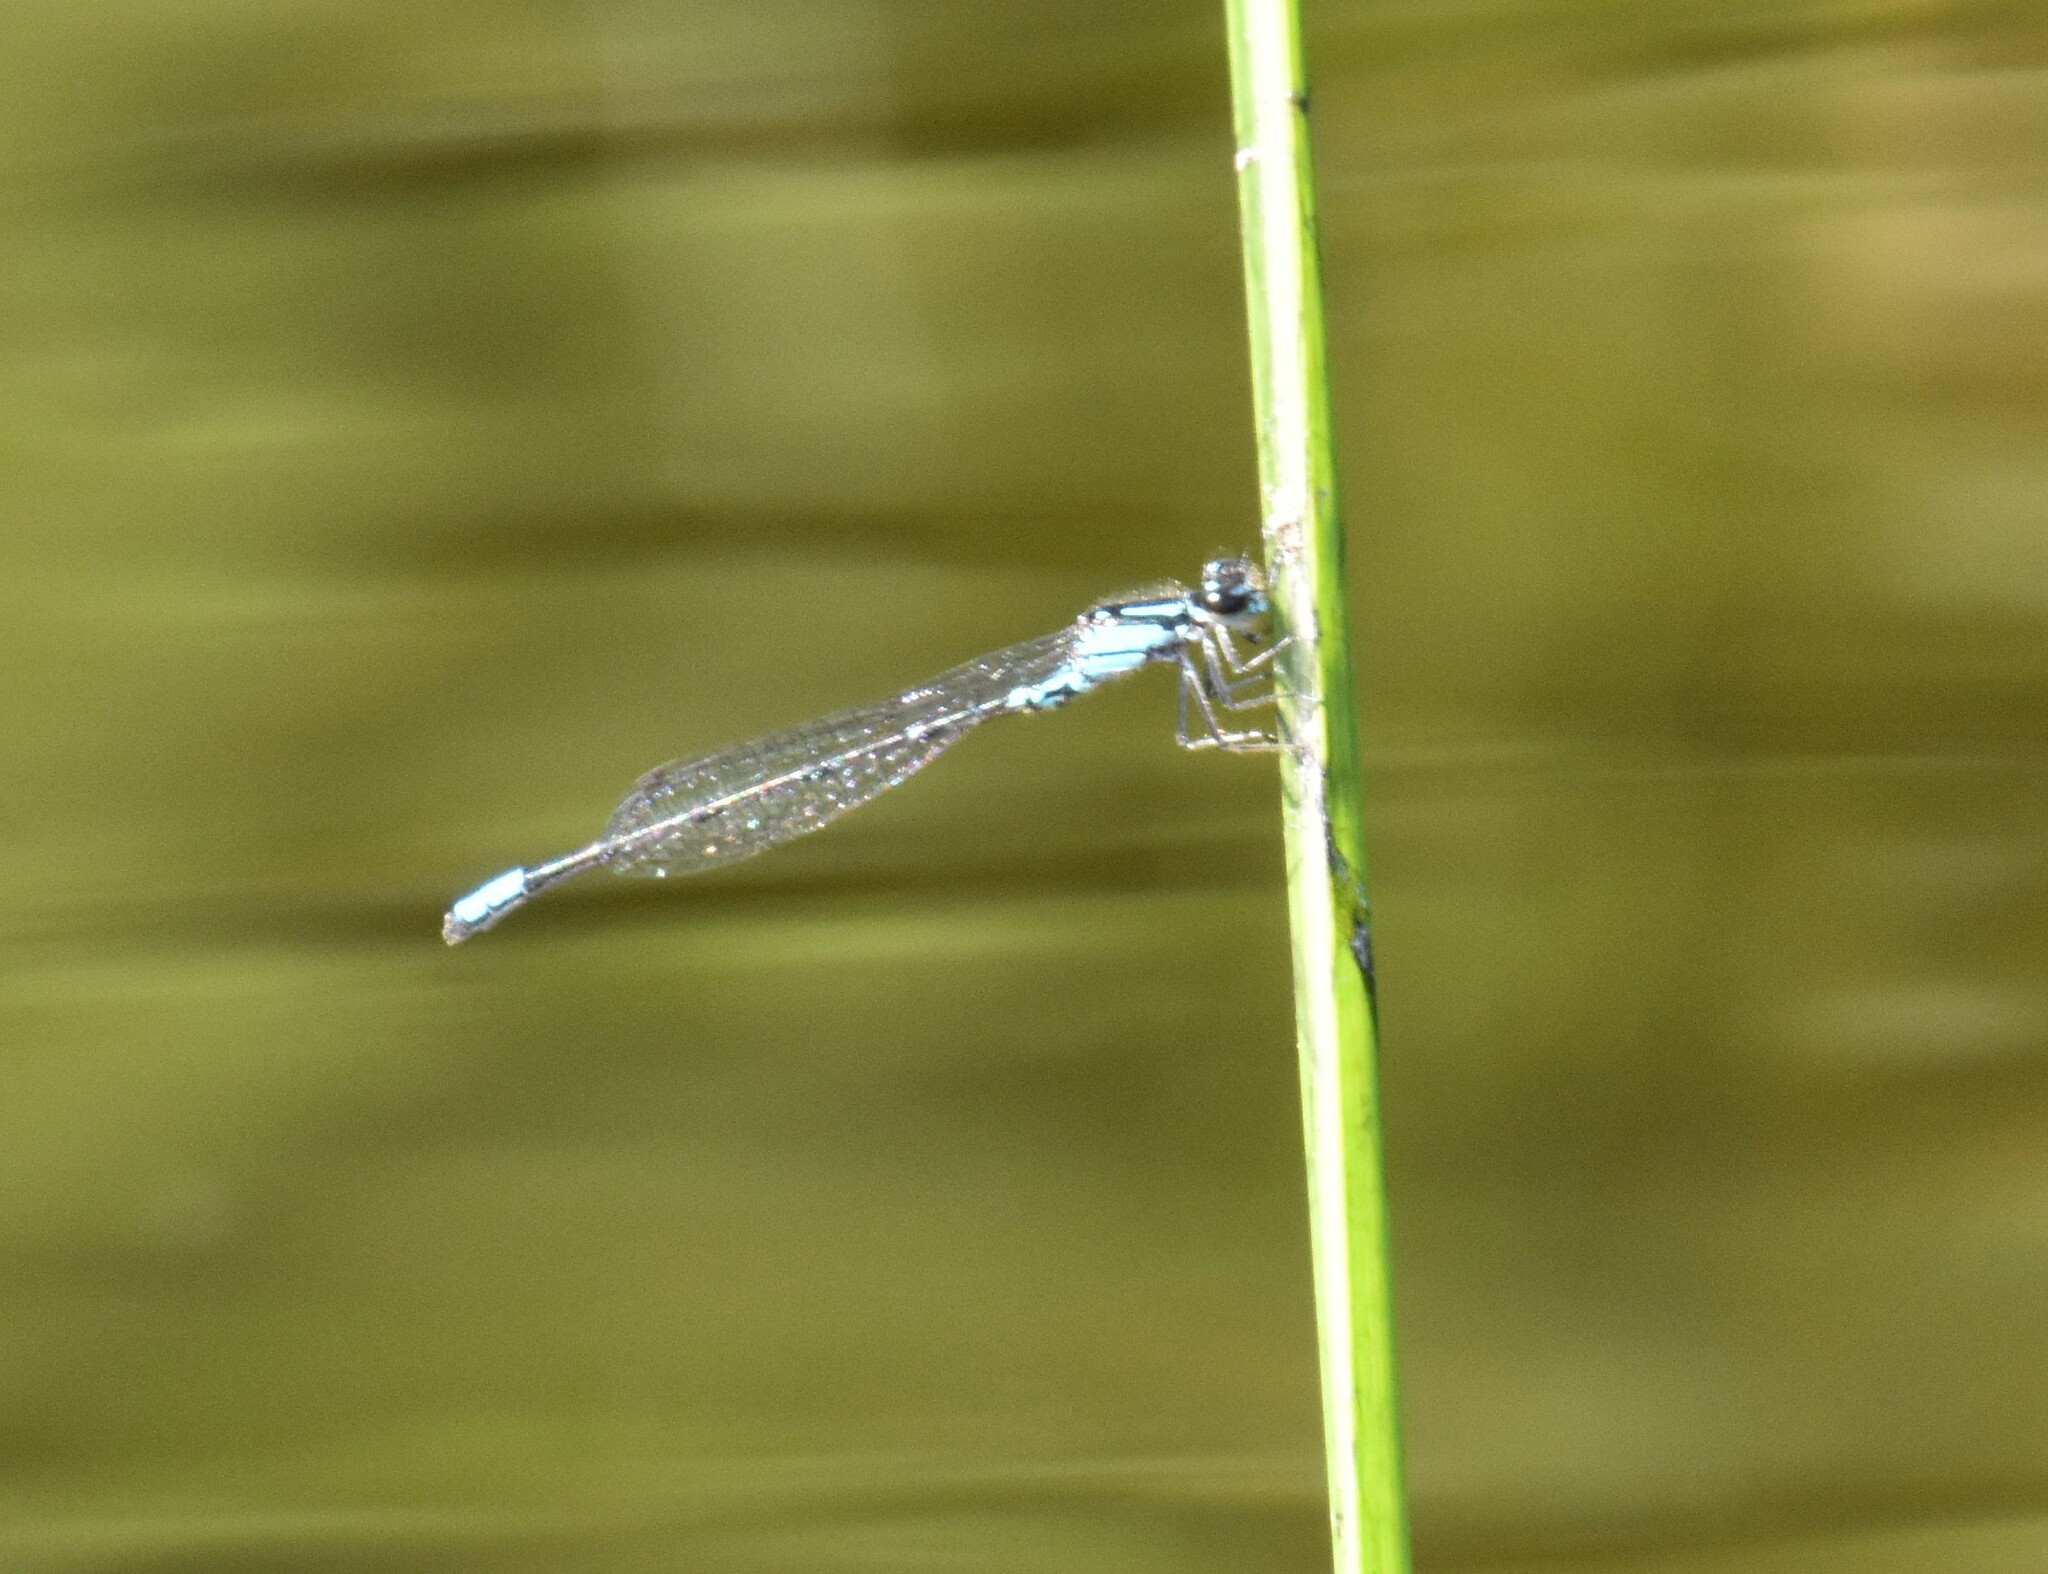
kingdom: Animalia
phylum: Arthropoda
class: Insecta
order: Odonata
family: Coenagrionidae
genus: Enallagma
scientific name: Enallagma geminatum
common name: Skimming bluet
